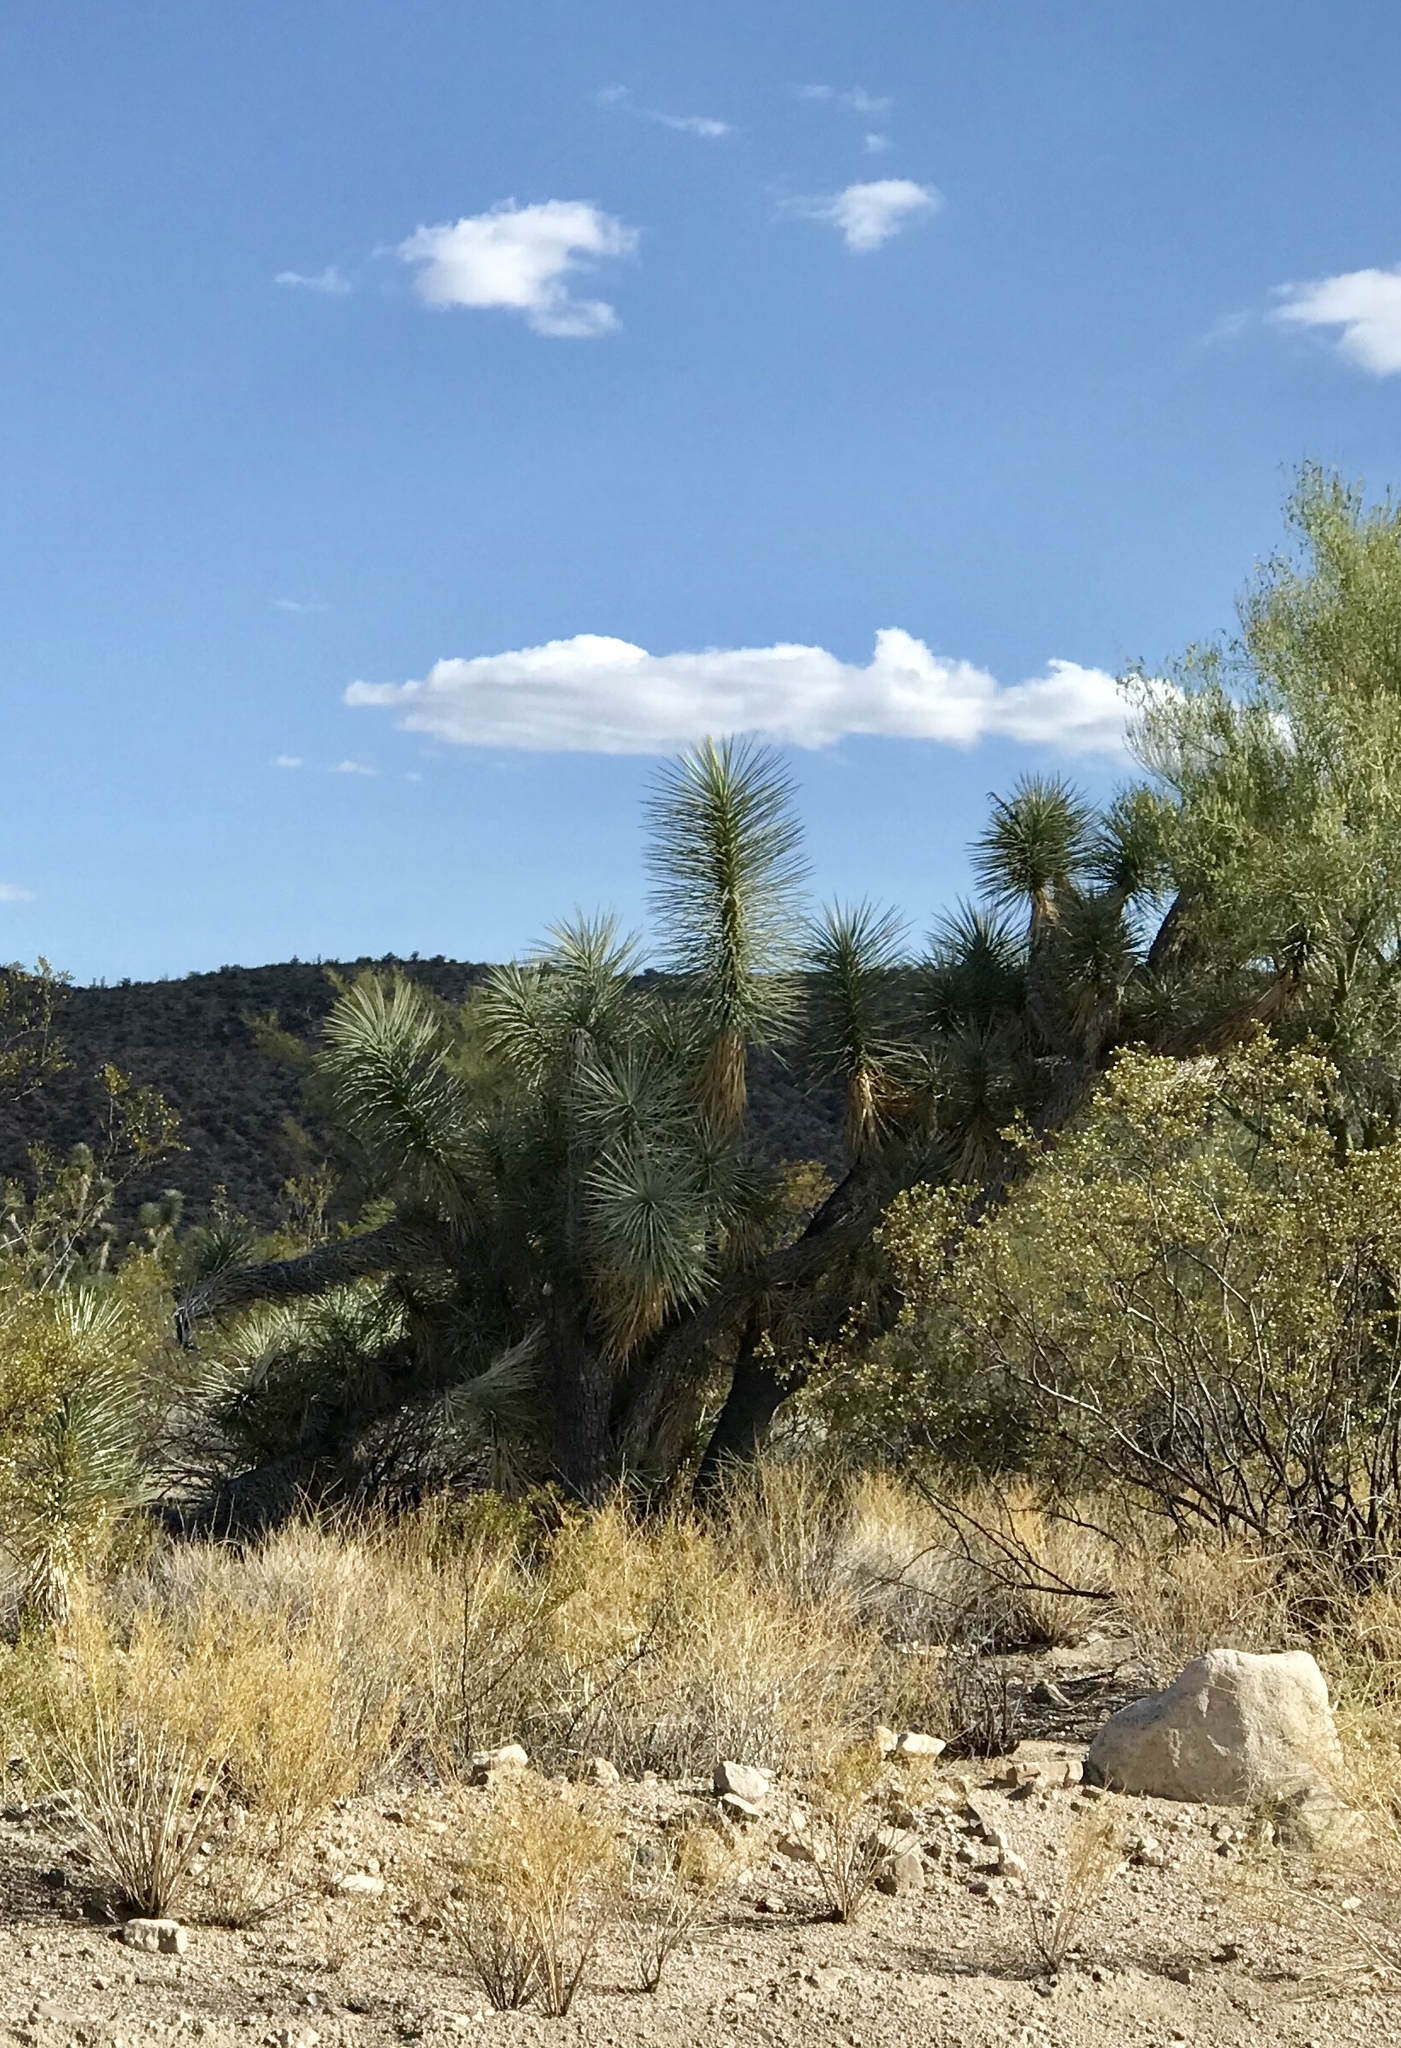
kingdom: Plantae
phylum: Tracheophyta
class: Liliopsida
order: Asparagales
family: Asparagaceae
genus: Yucca
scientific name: Yucca brevifolia
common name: Joshua tree
